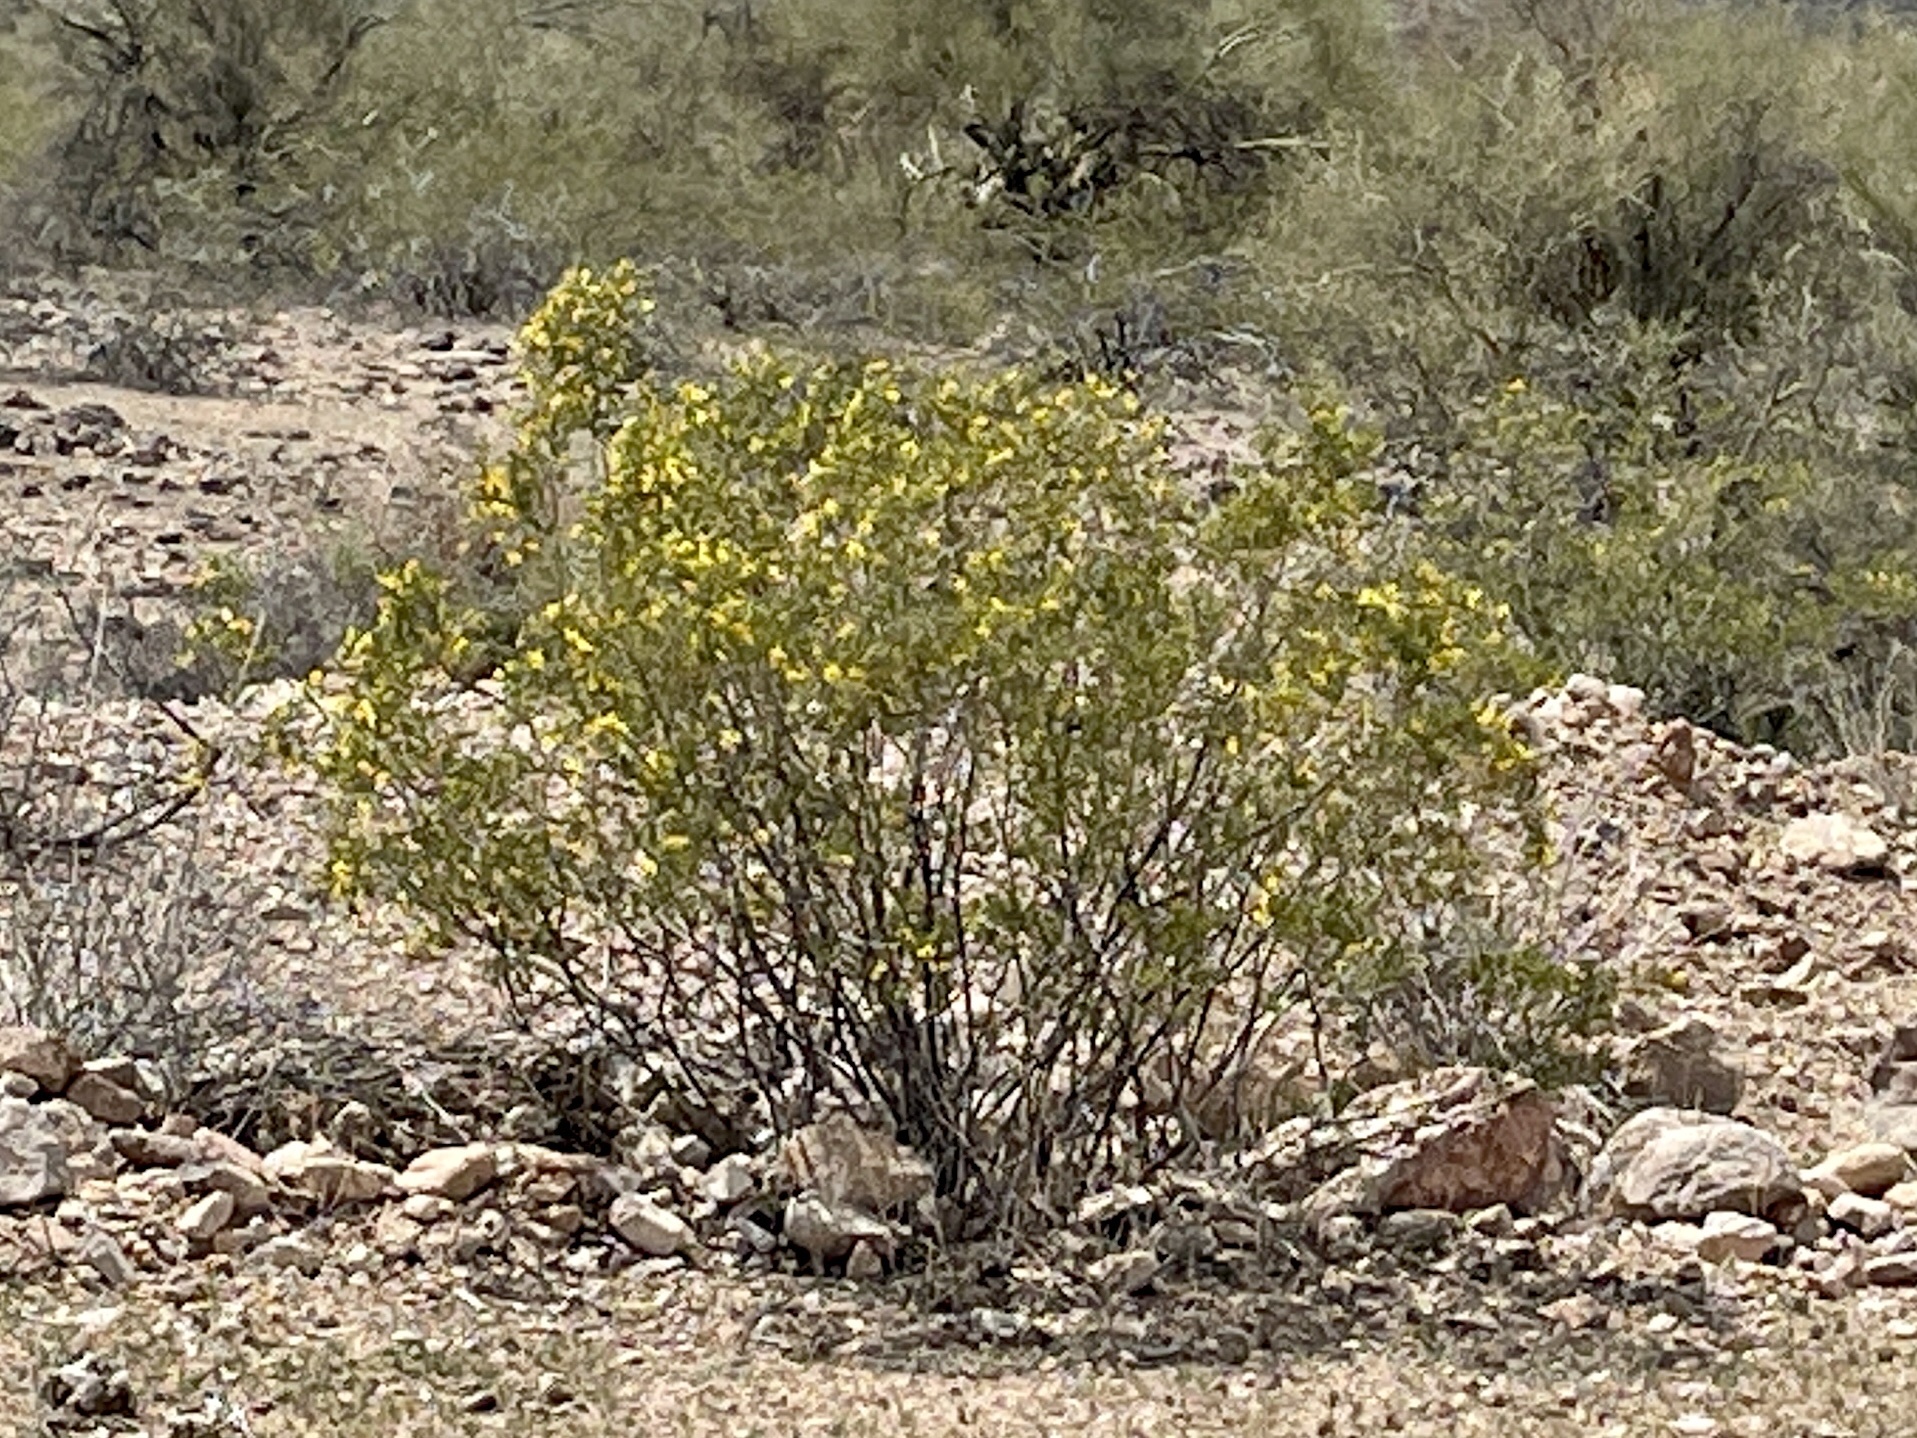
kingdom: Plantae
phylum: Tracheophyta
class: Magnoliopsida
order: Zygophyllales
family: Zygophyllaceae
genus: Larrea
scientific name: Larrea tridentata
